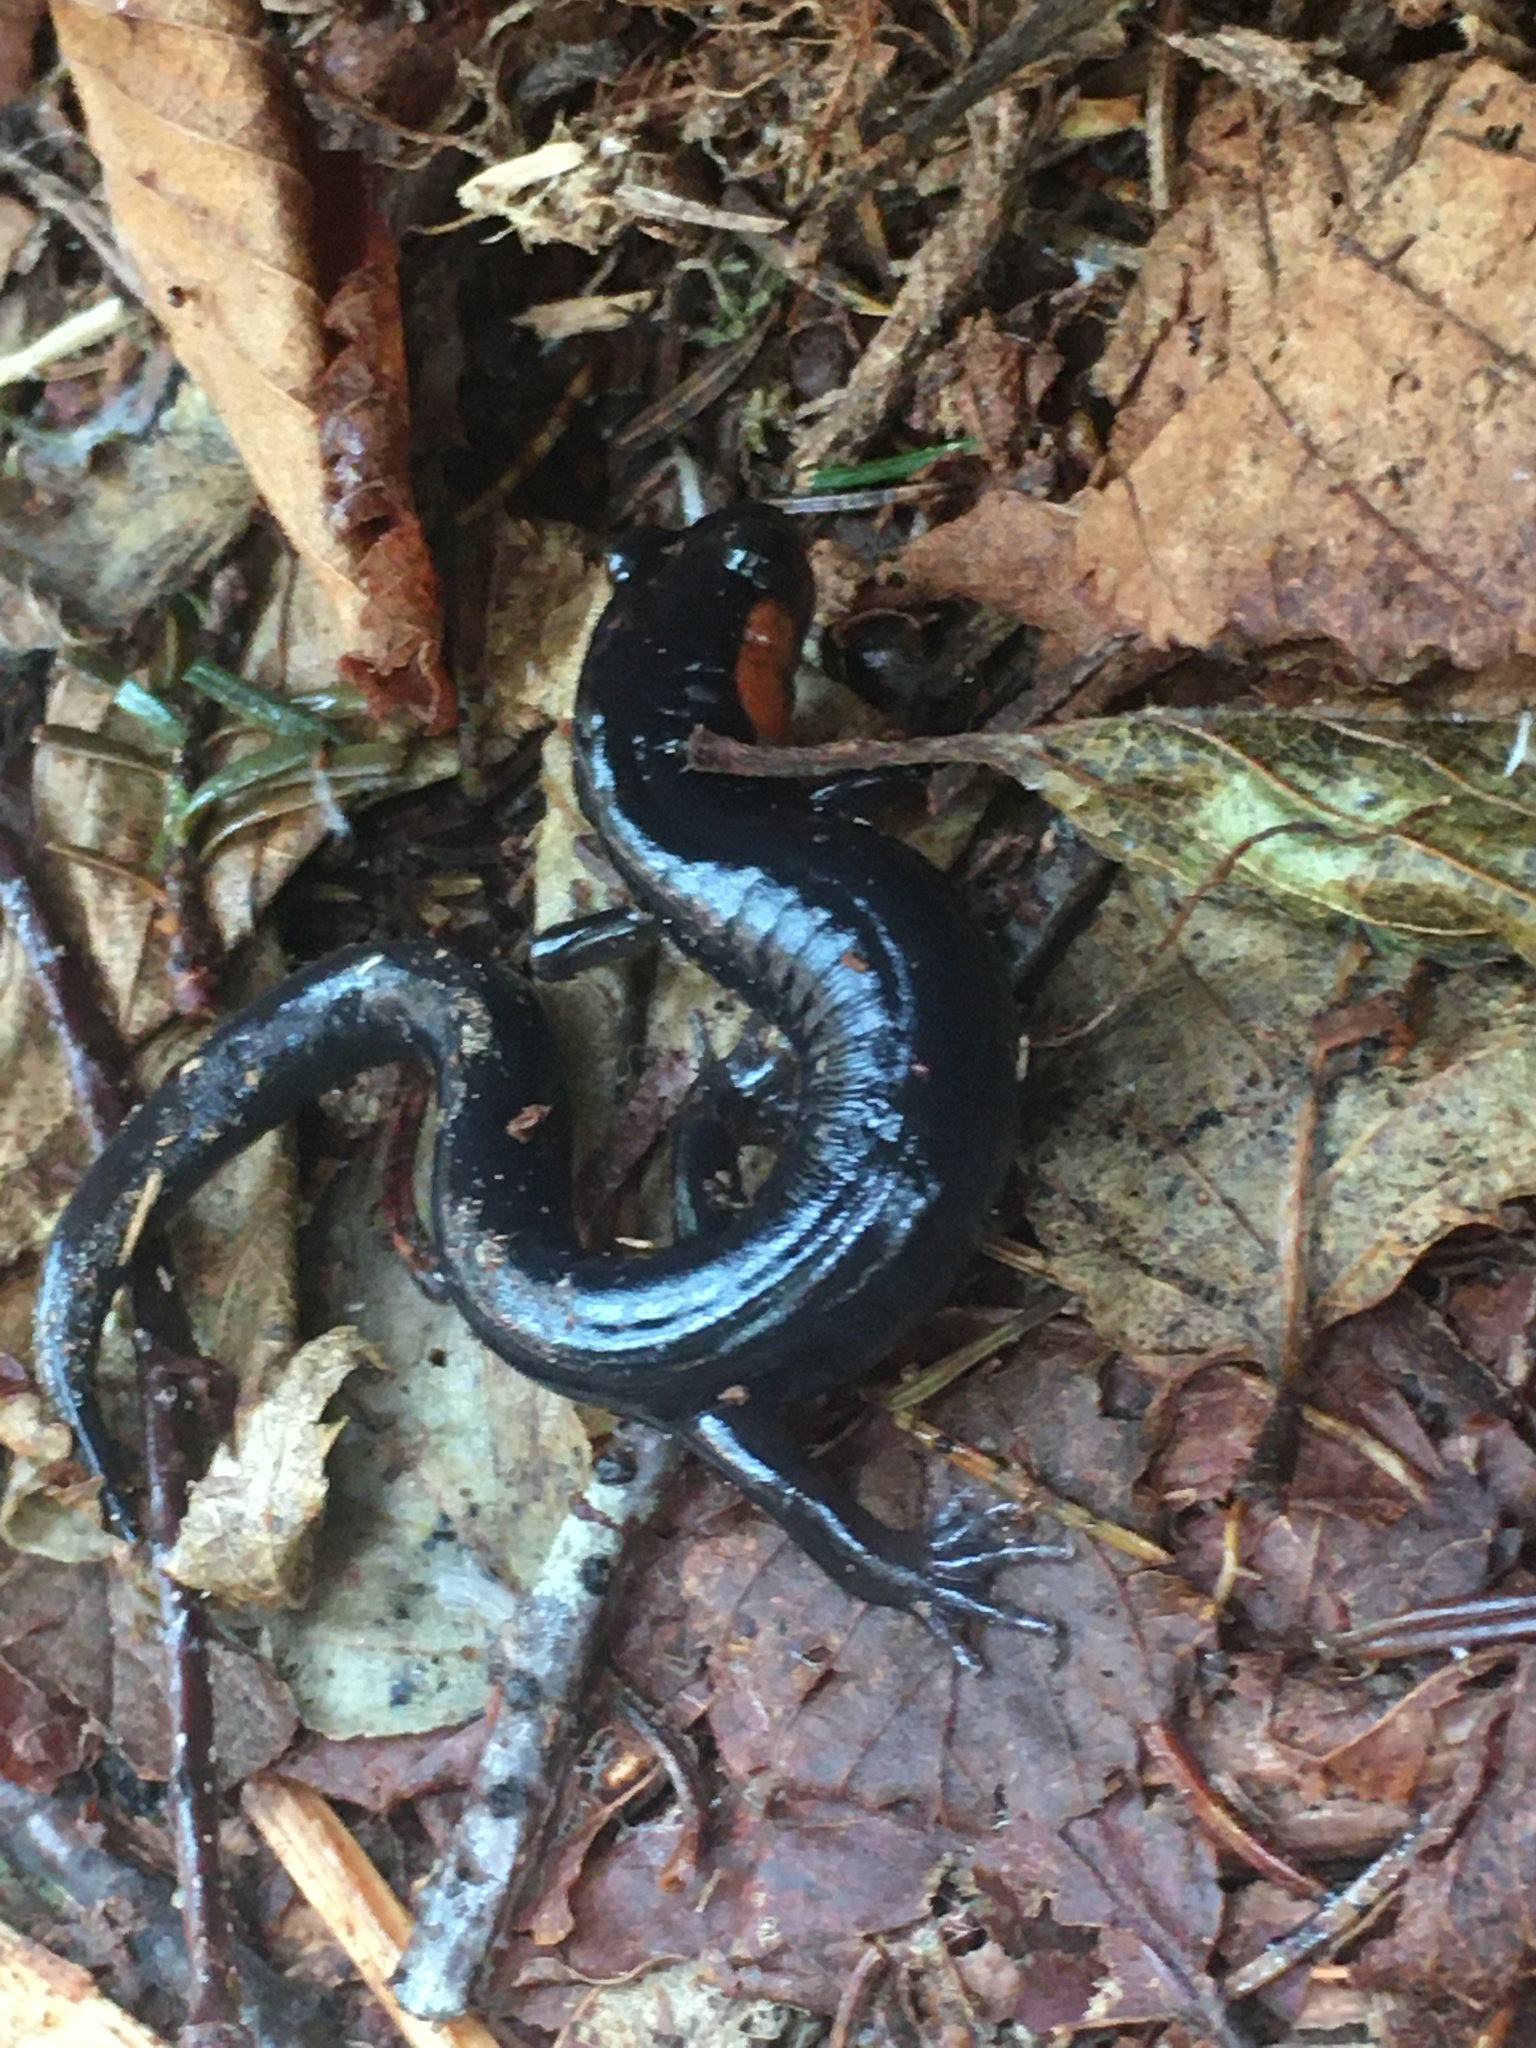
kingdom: Animalia
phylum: Chordata
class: Amphibia
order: Caudata
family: Plethodontidae
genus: Plethodon
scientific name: Plethodon jordani
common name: Red-cheeked salamander
